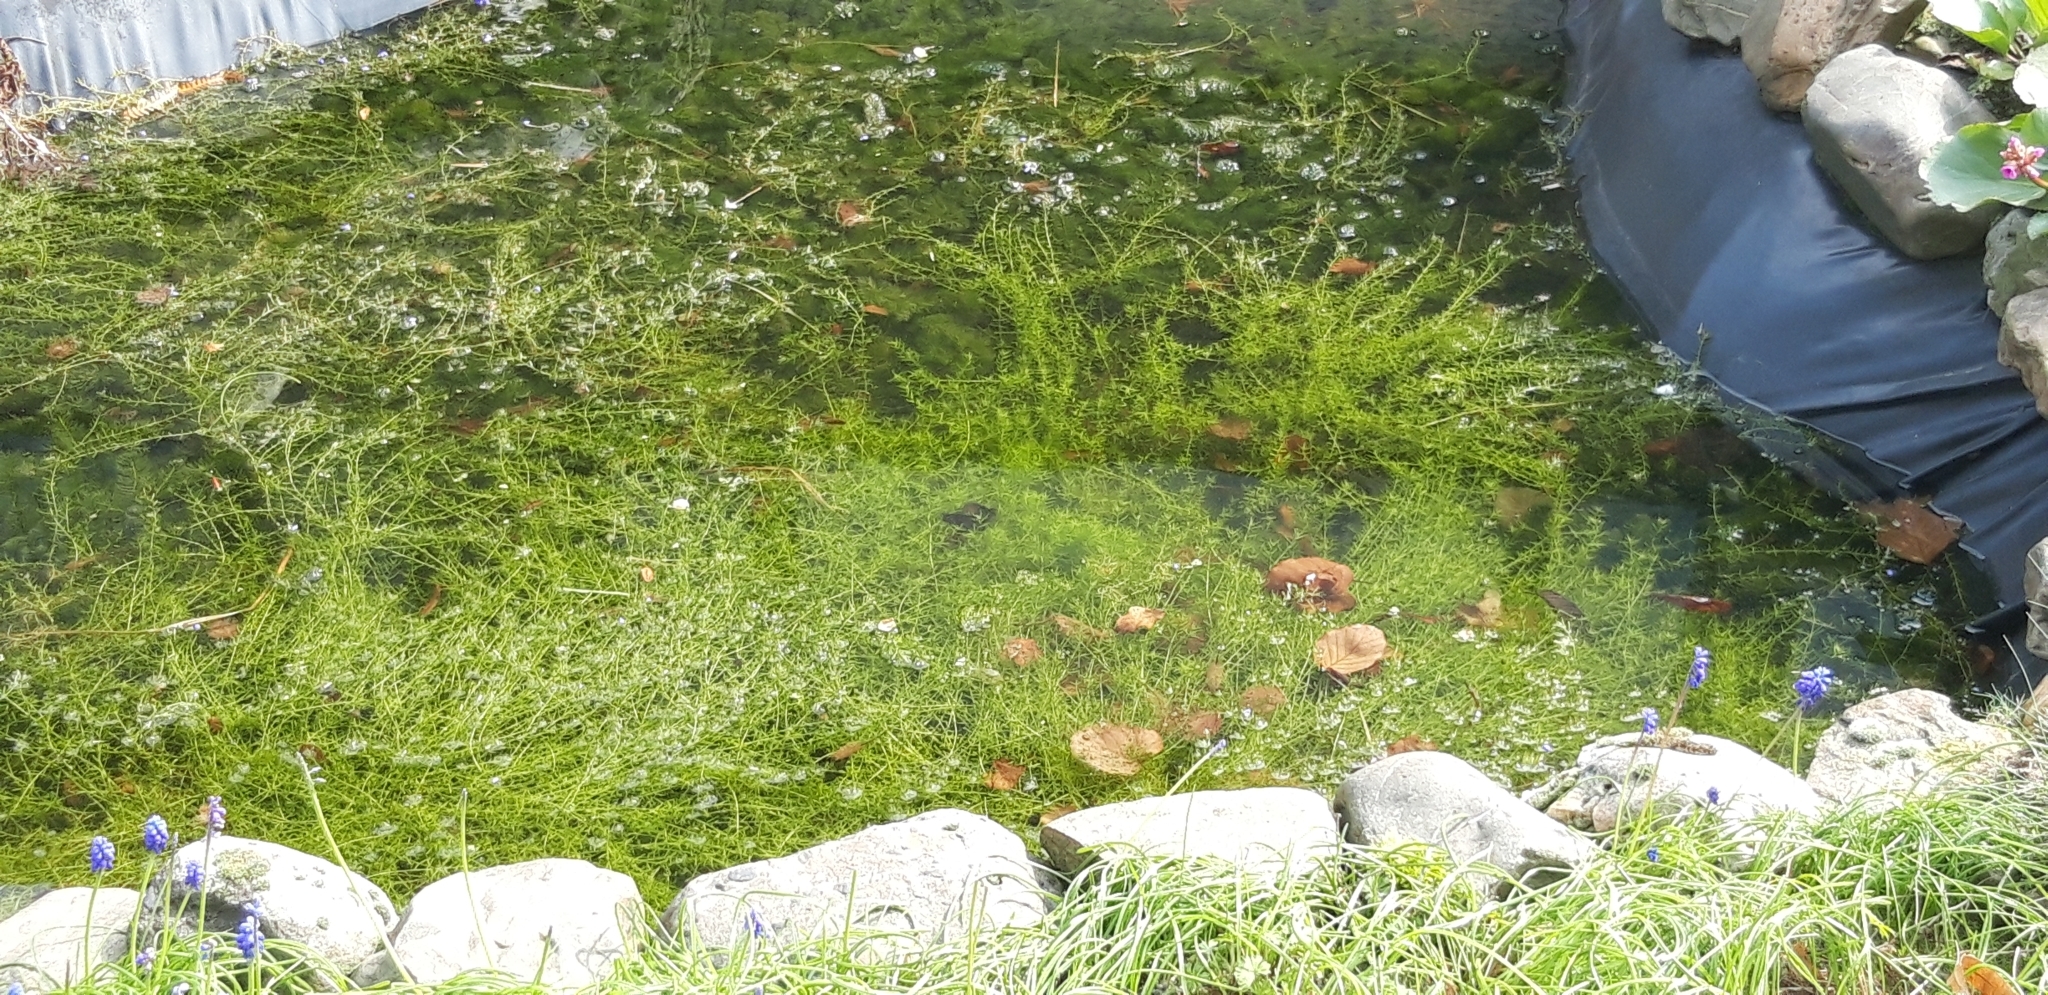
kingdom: Plantae
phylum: Tracheophyta
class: Magnoliopsida
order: Saxifragales
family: Crassulaceae
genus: Crassula
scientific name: Crassula helmsii
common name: New zealand pigmyweed
